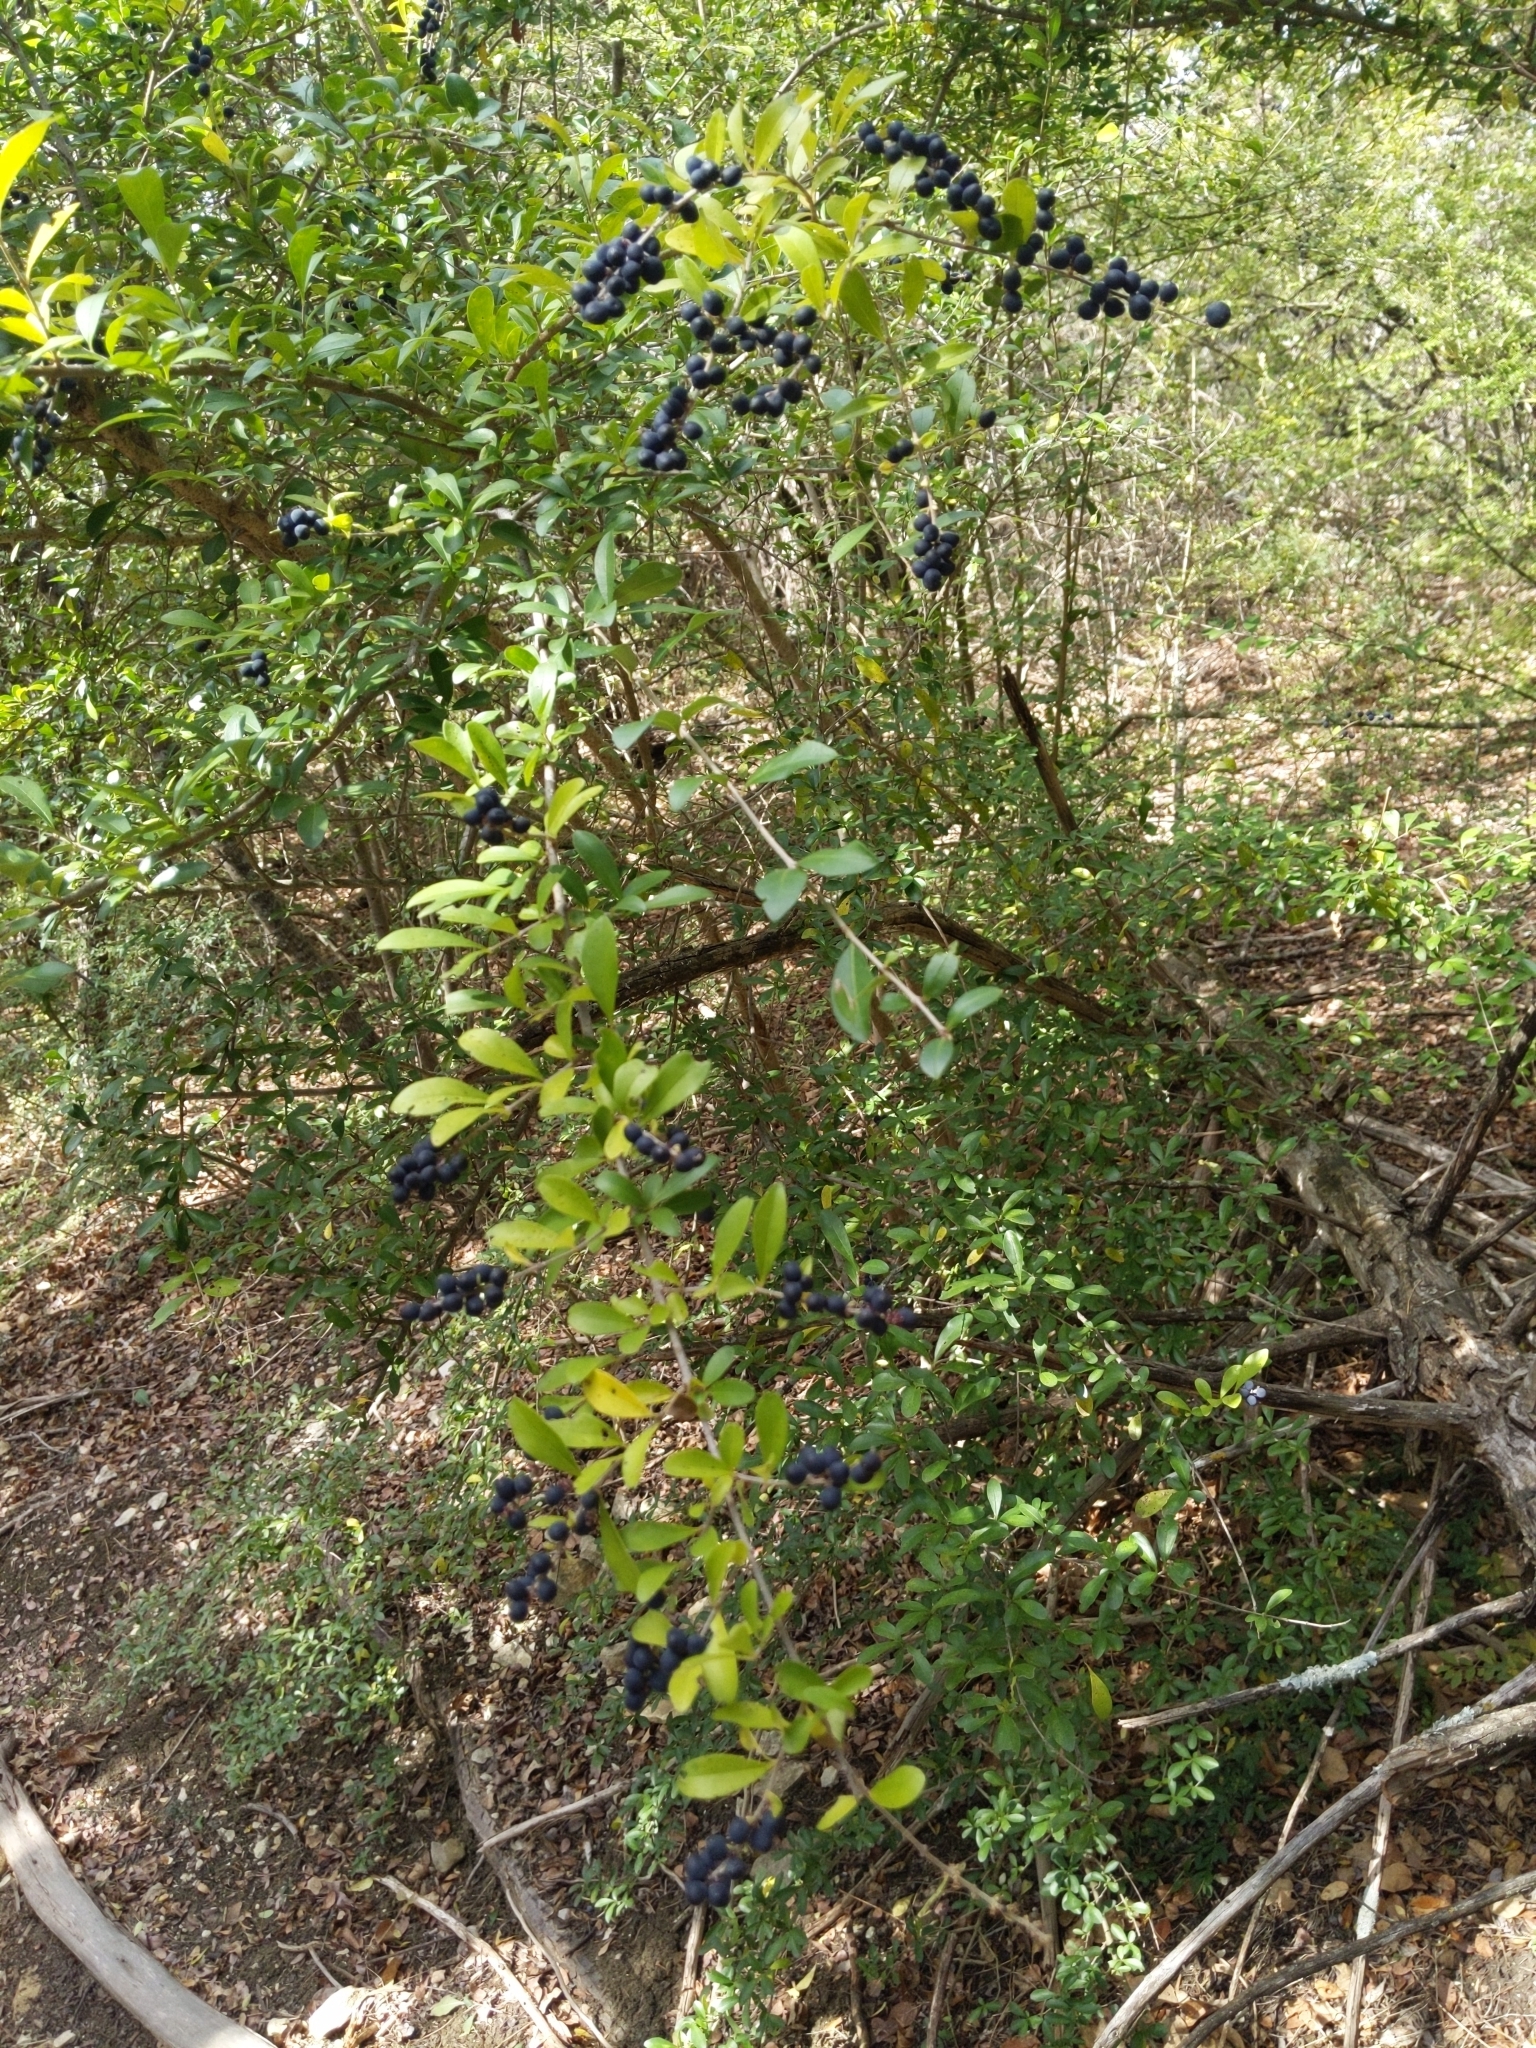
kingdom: Plantae
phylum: Tracheophyta
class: Magnoliopsida
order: Lamiales
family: Oleaceae
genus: Ligustrum
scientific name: Ligustrum quihoui
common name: Waxyleaf privet
